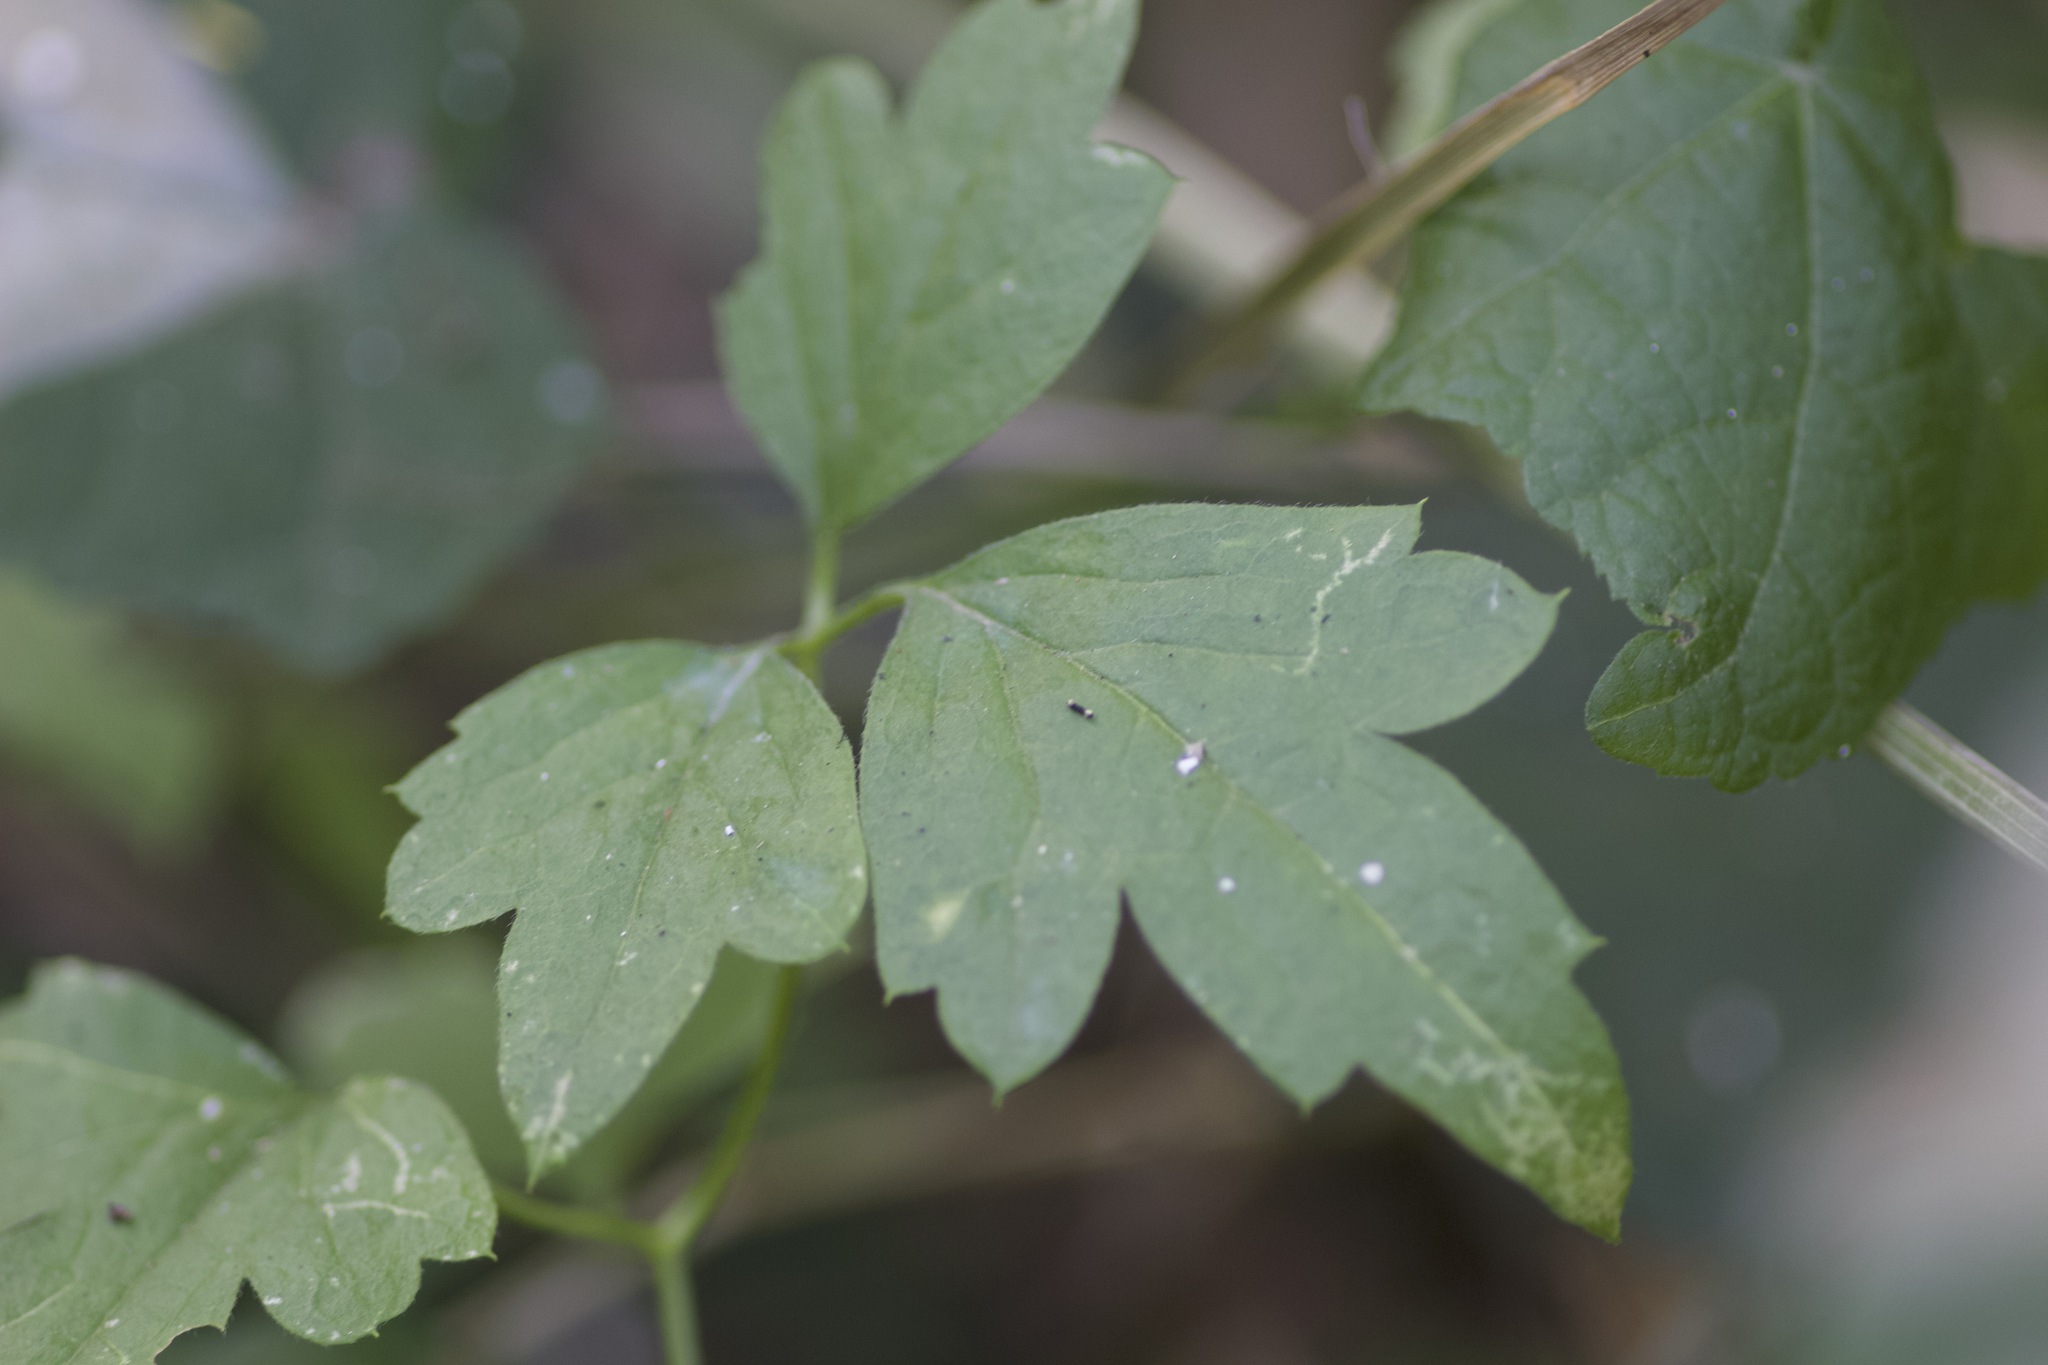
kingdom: Plantae
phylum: Tracheophyta
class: Magnoliopsida
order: Ranunculales
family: Ranunculaceae
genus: Clematis
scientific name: Clematis drummondii
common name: Texas virgin's bower
